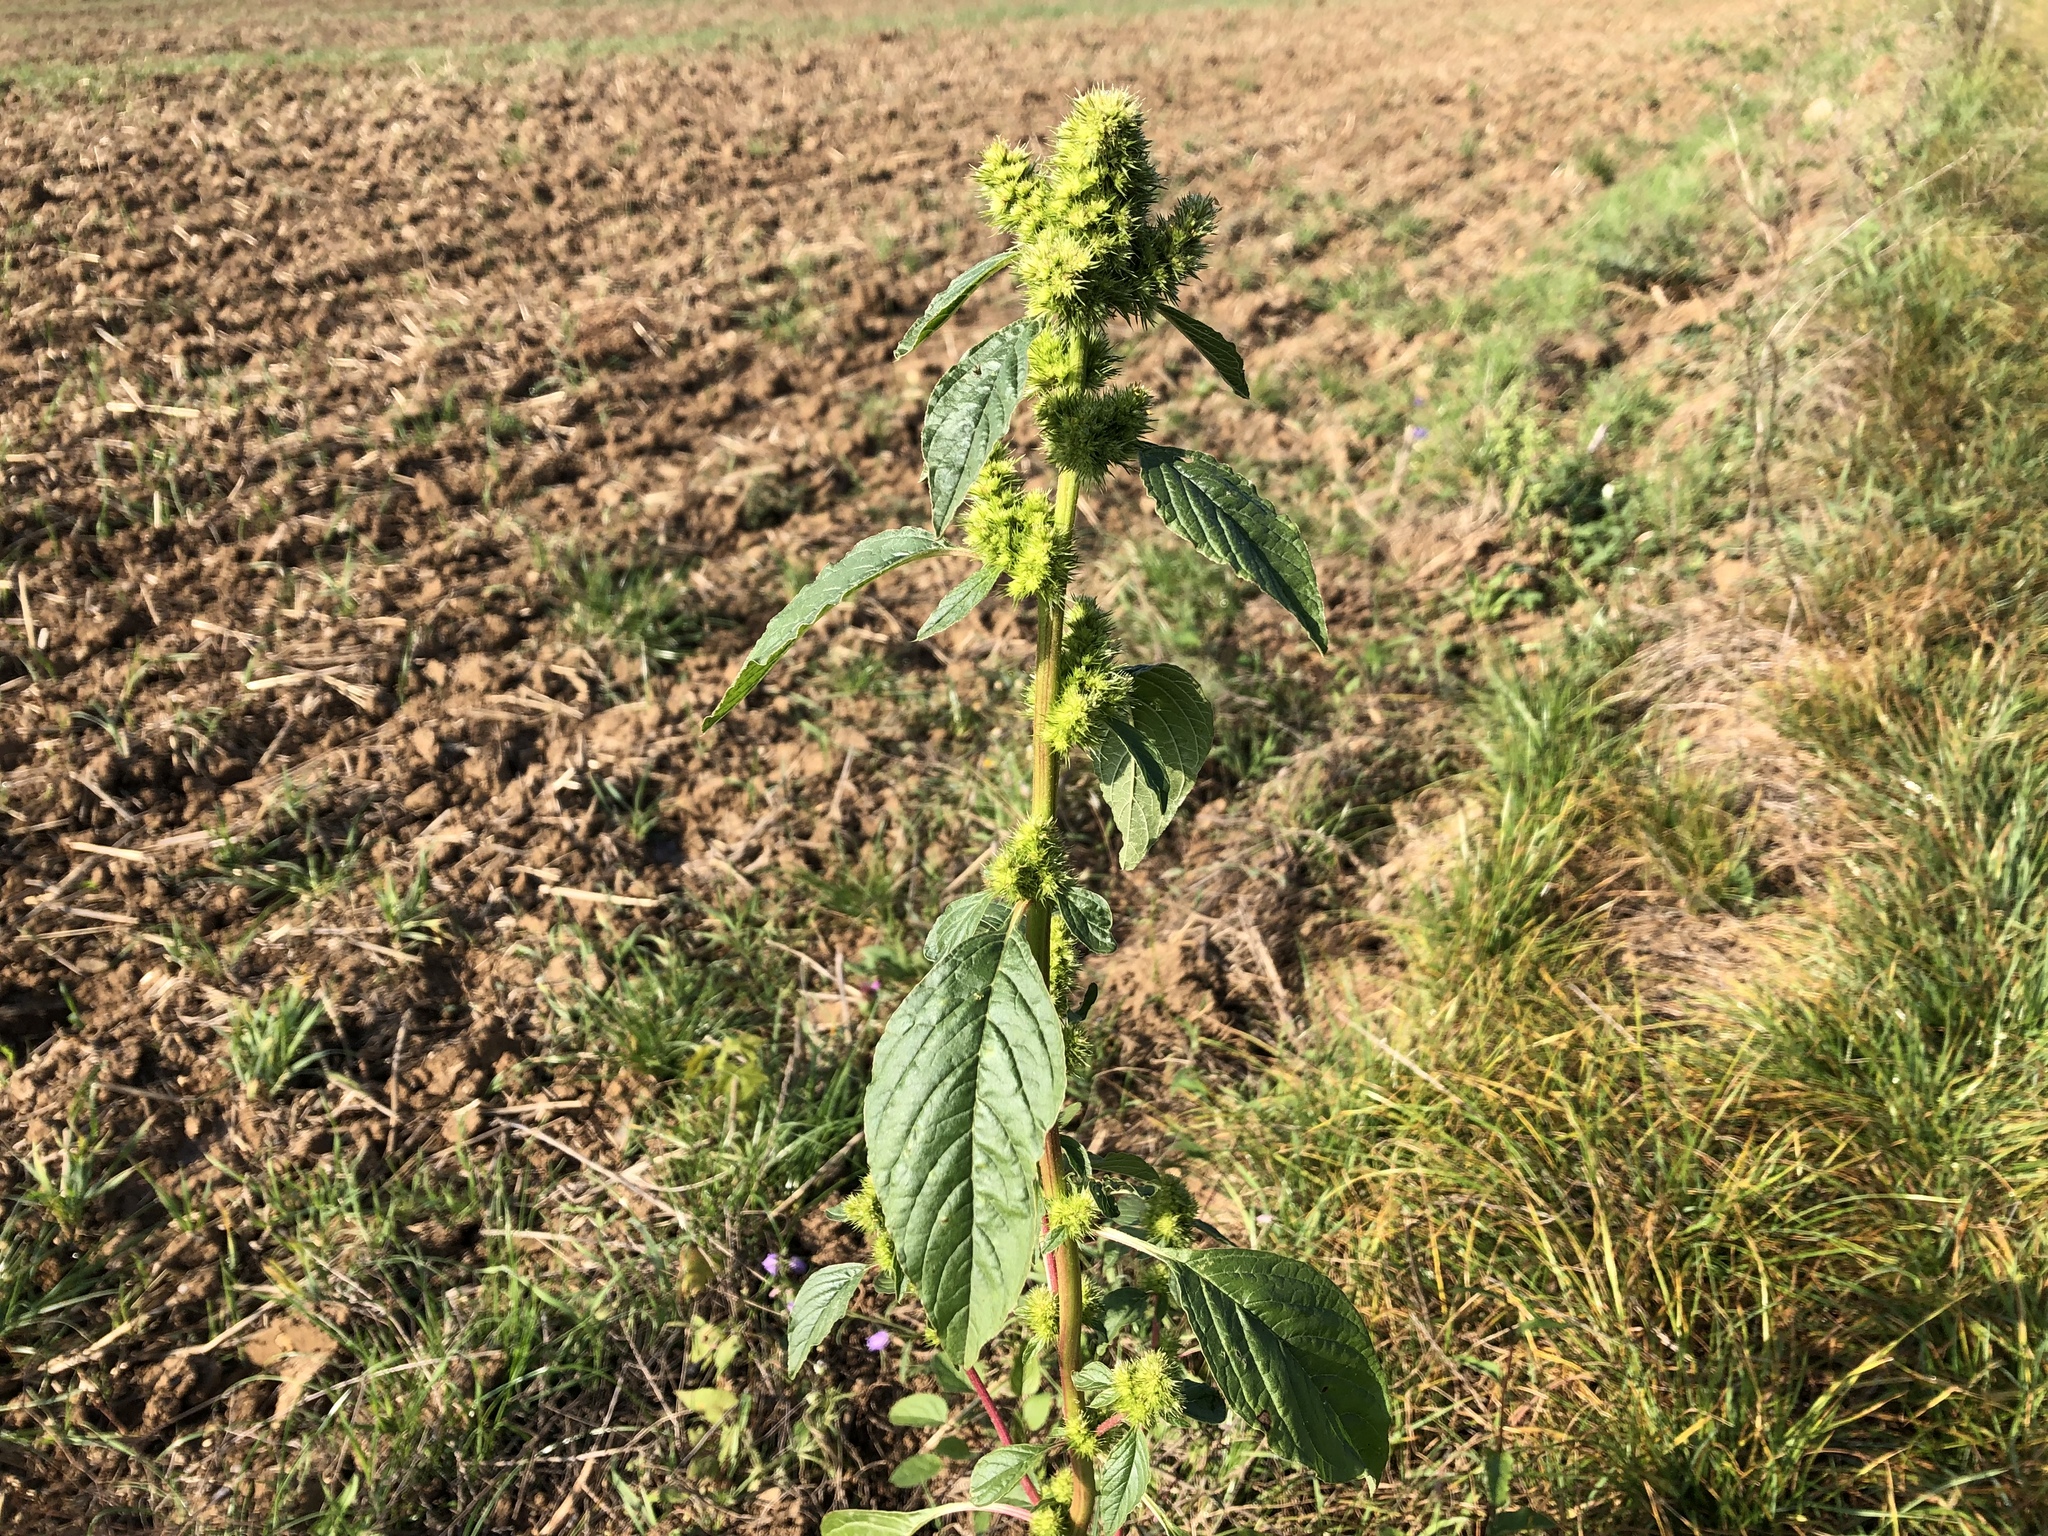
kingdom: Plantae
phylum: Tracheophyta
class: Magnoliopsida
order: Caryophyllales
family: Amaranthaceae
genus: Amaranthus
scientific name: Amaranthus retroflexus
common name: Redroot amaranth
